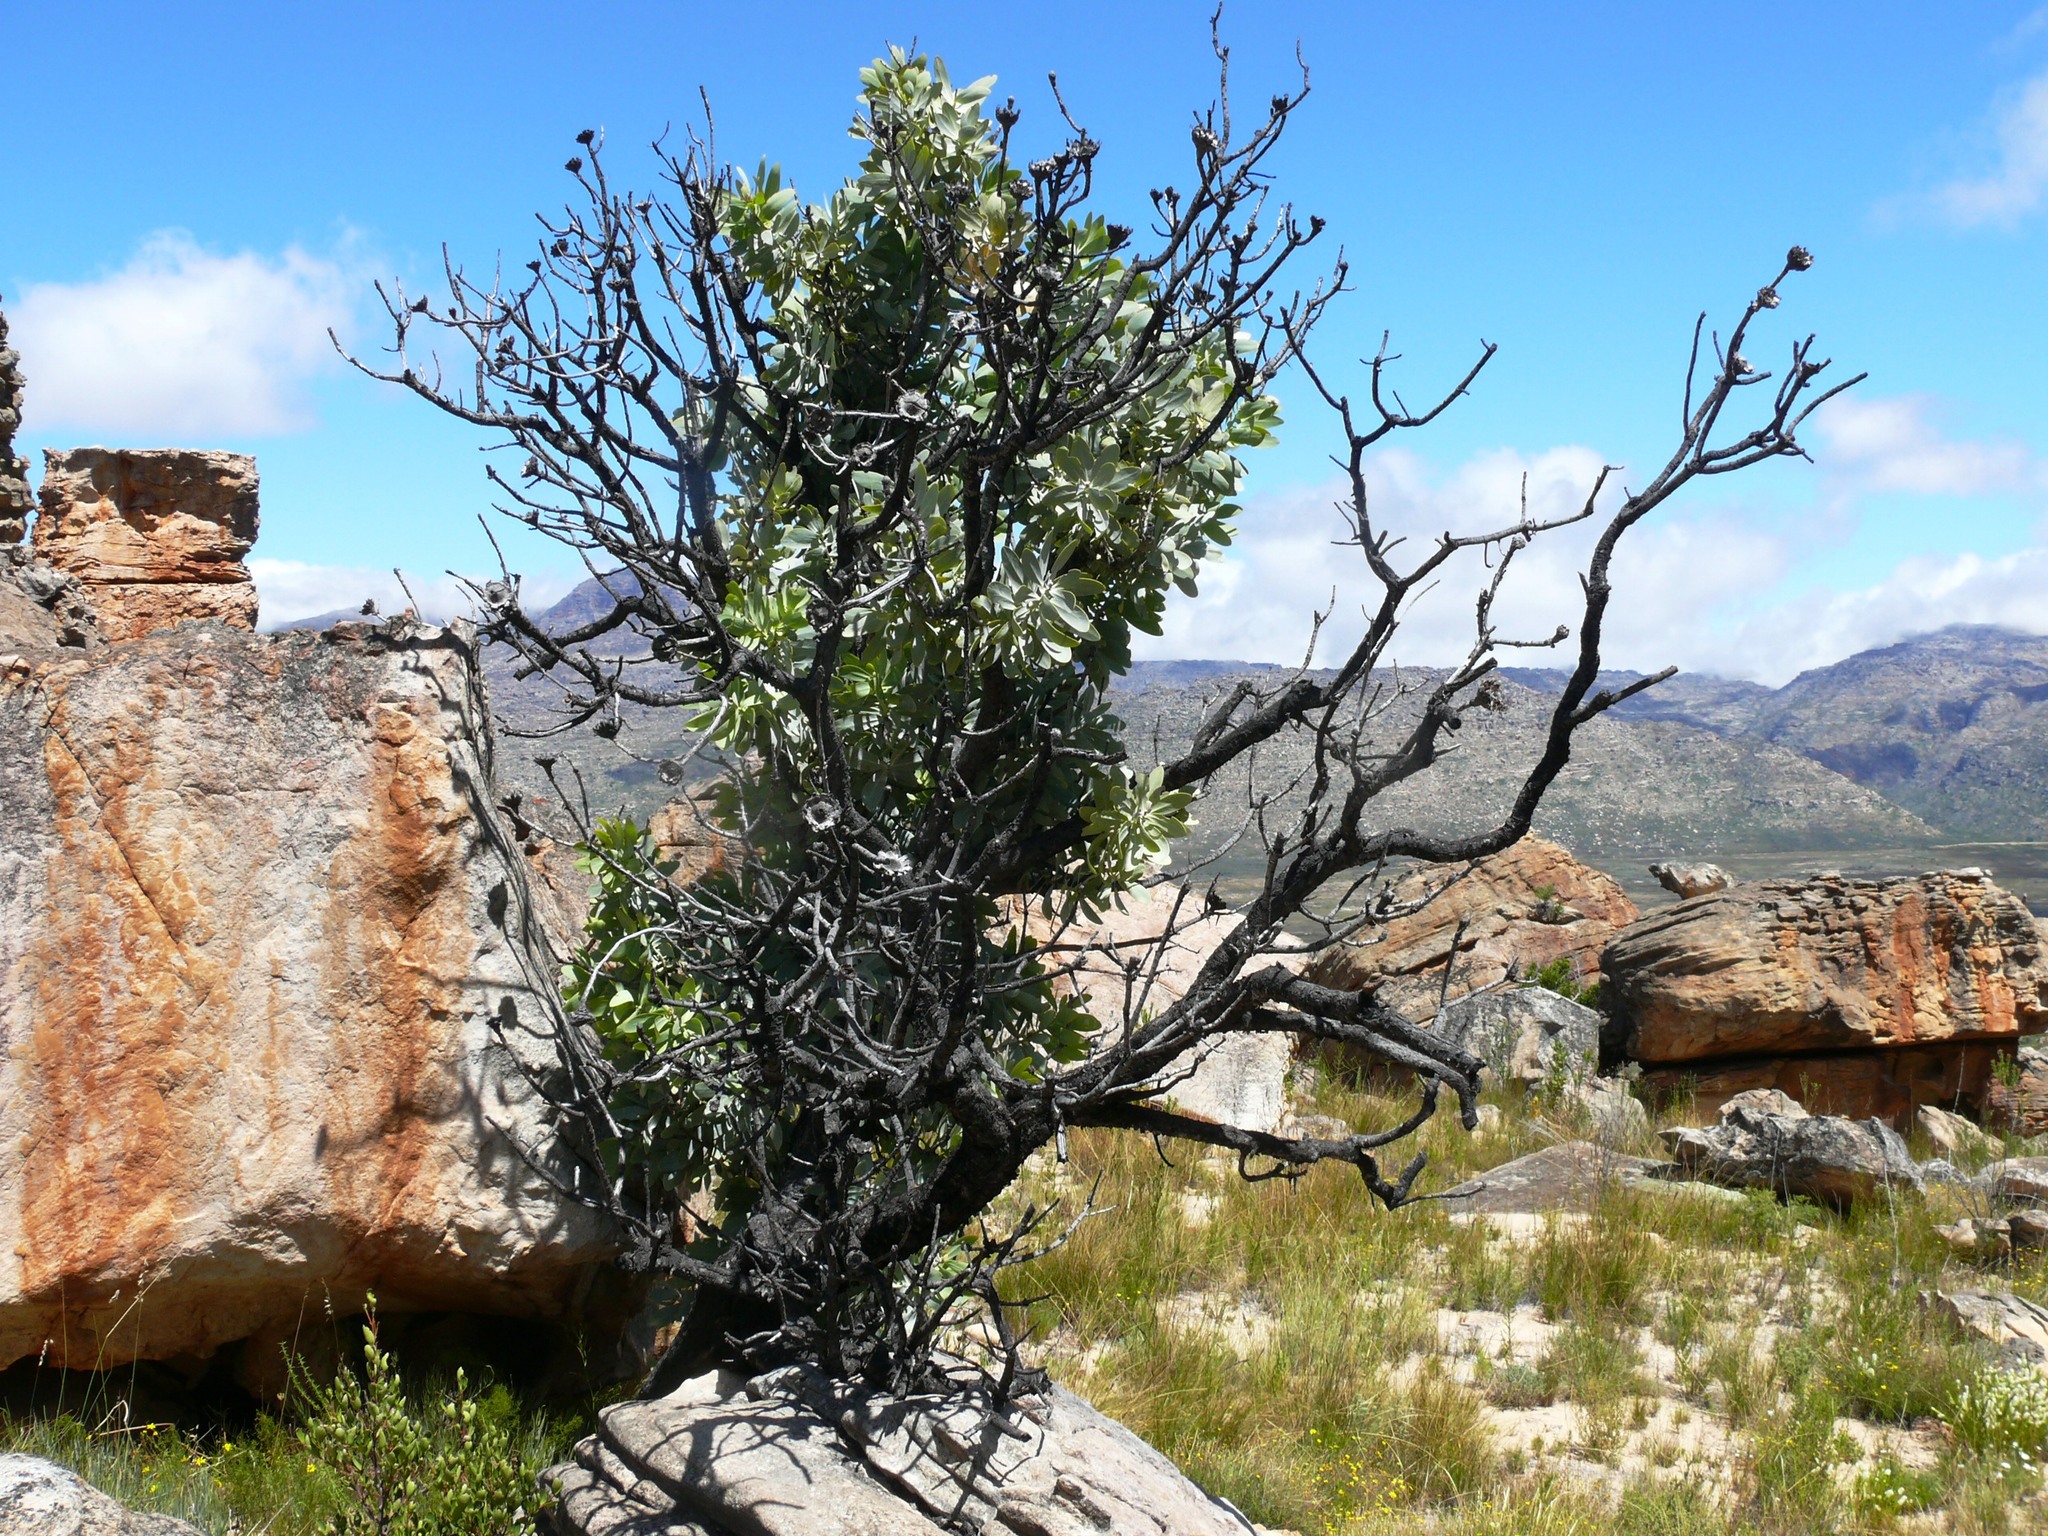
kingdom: Plantae
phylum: Tracheophyta
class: Magnoliopsida
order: Proteales
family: Proteaceae
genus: Protea
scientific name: Protea nitida
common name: Tree protea
